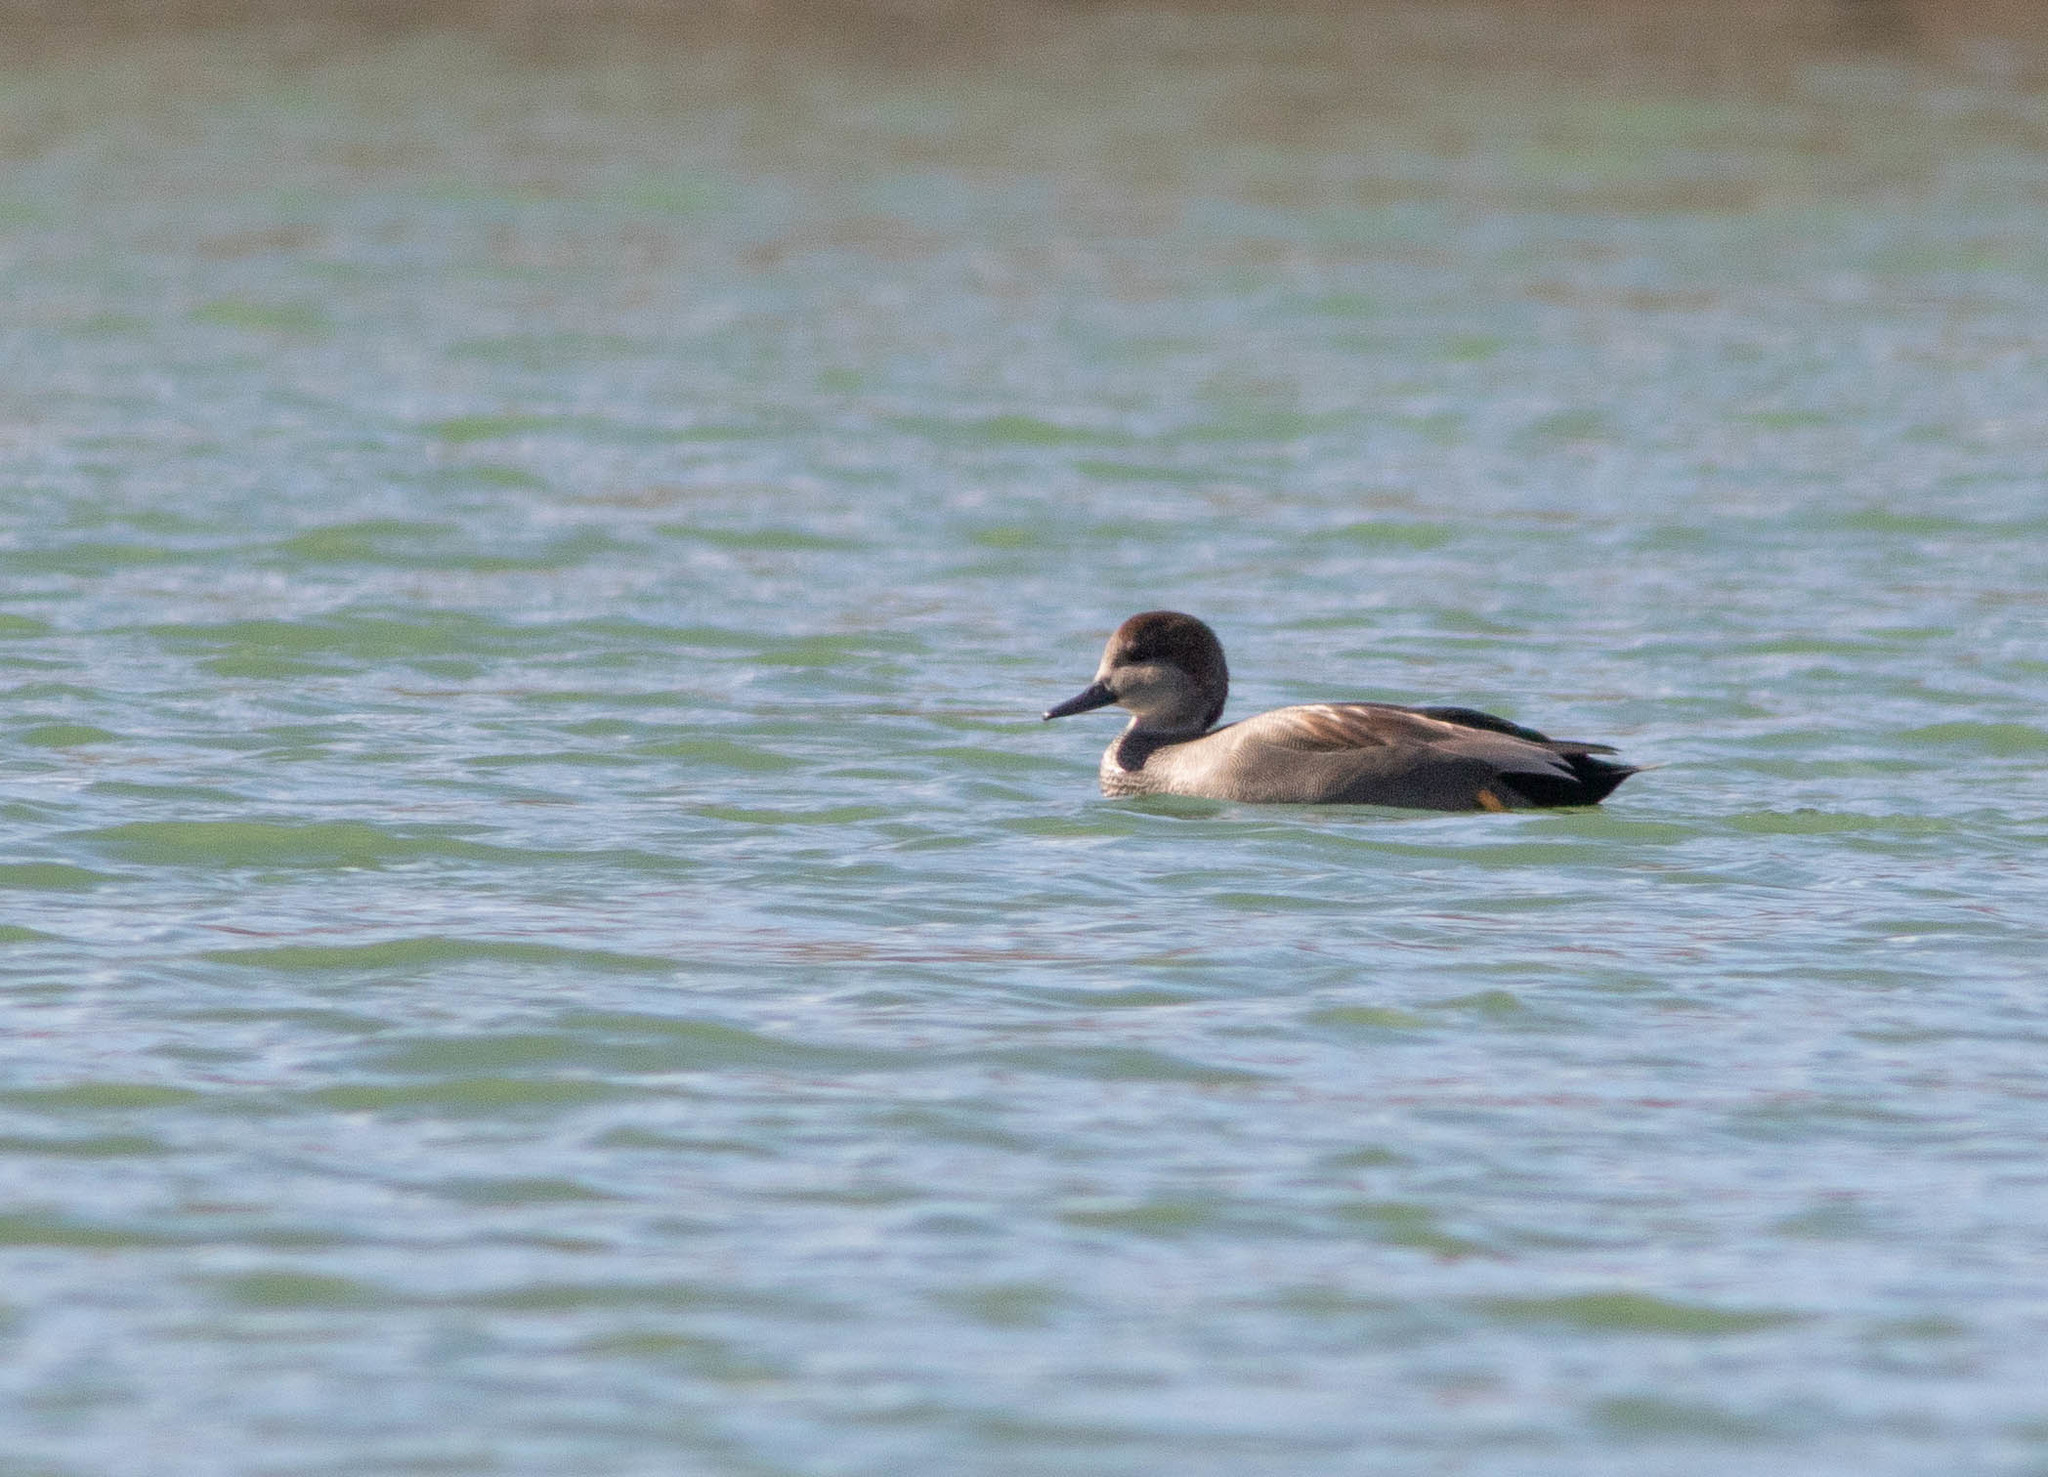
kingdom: Animalia
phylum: Chordata
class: Aves
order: Anseriformes
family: Anatidae
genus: Mareca
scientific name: Mareca strepera
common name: Gadwall
